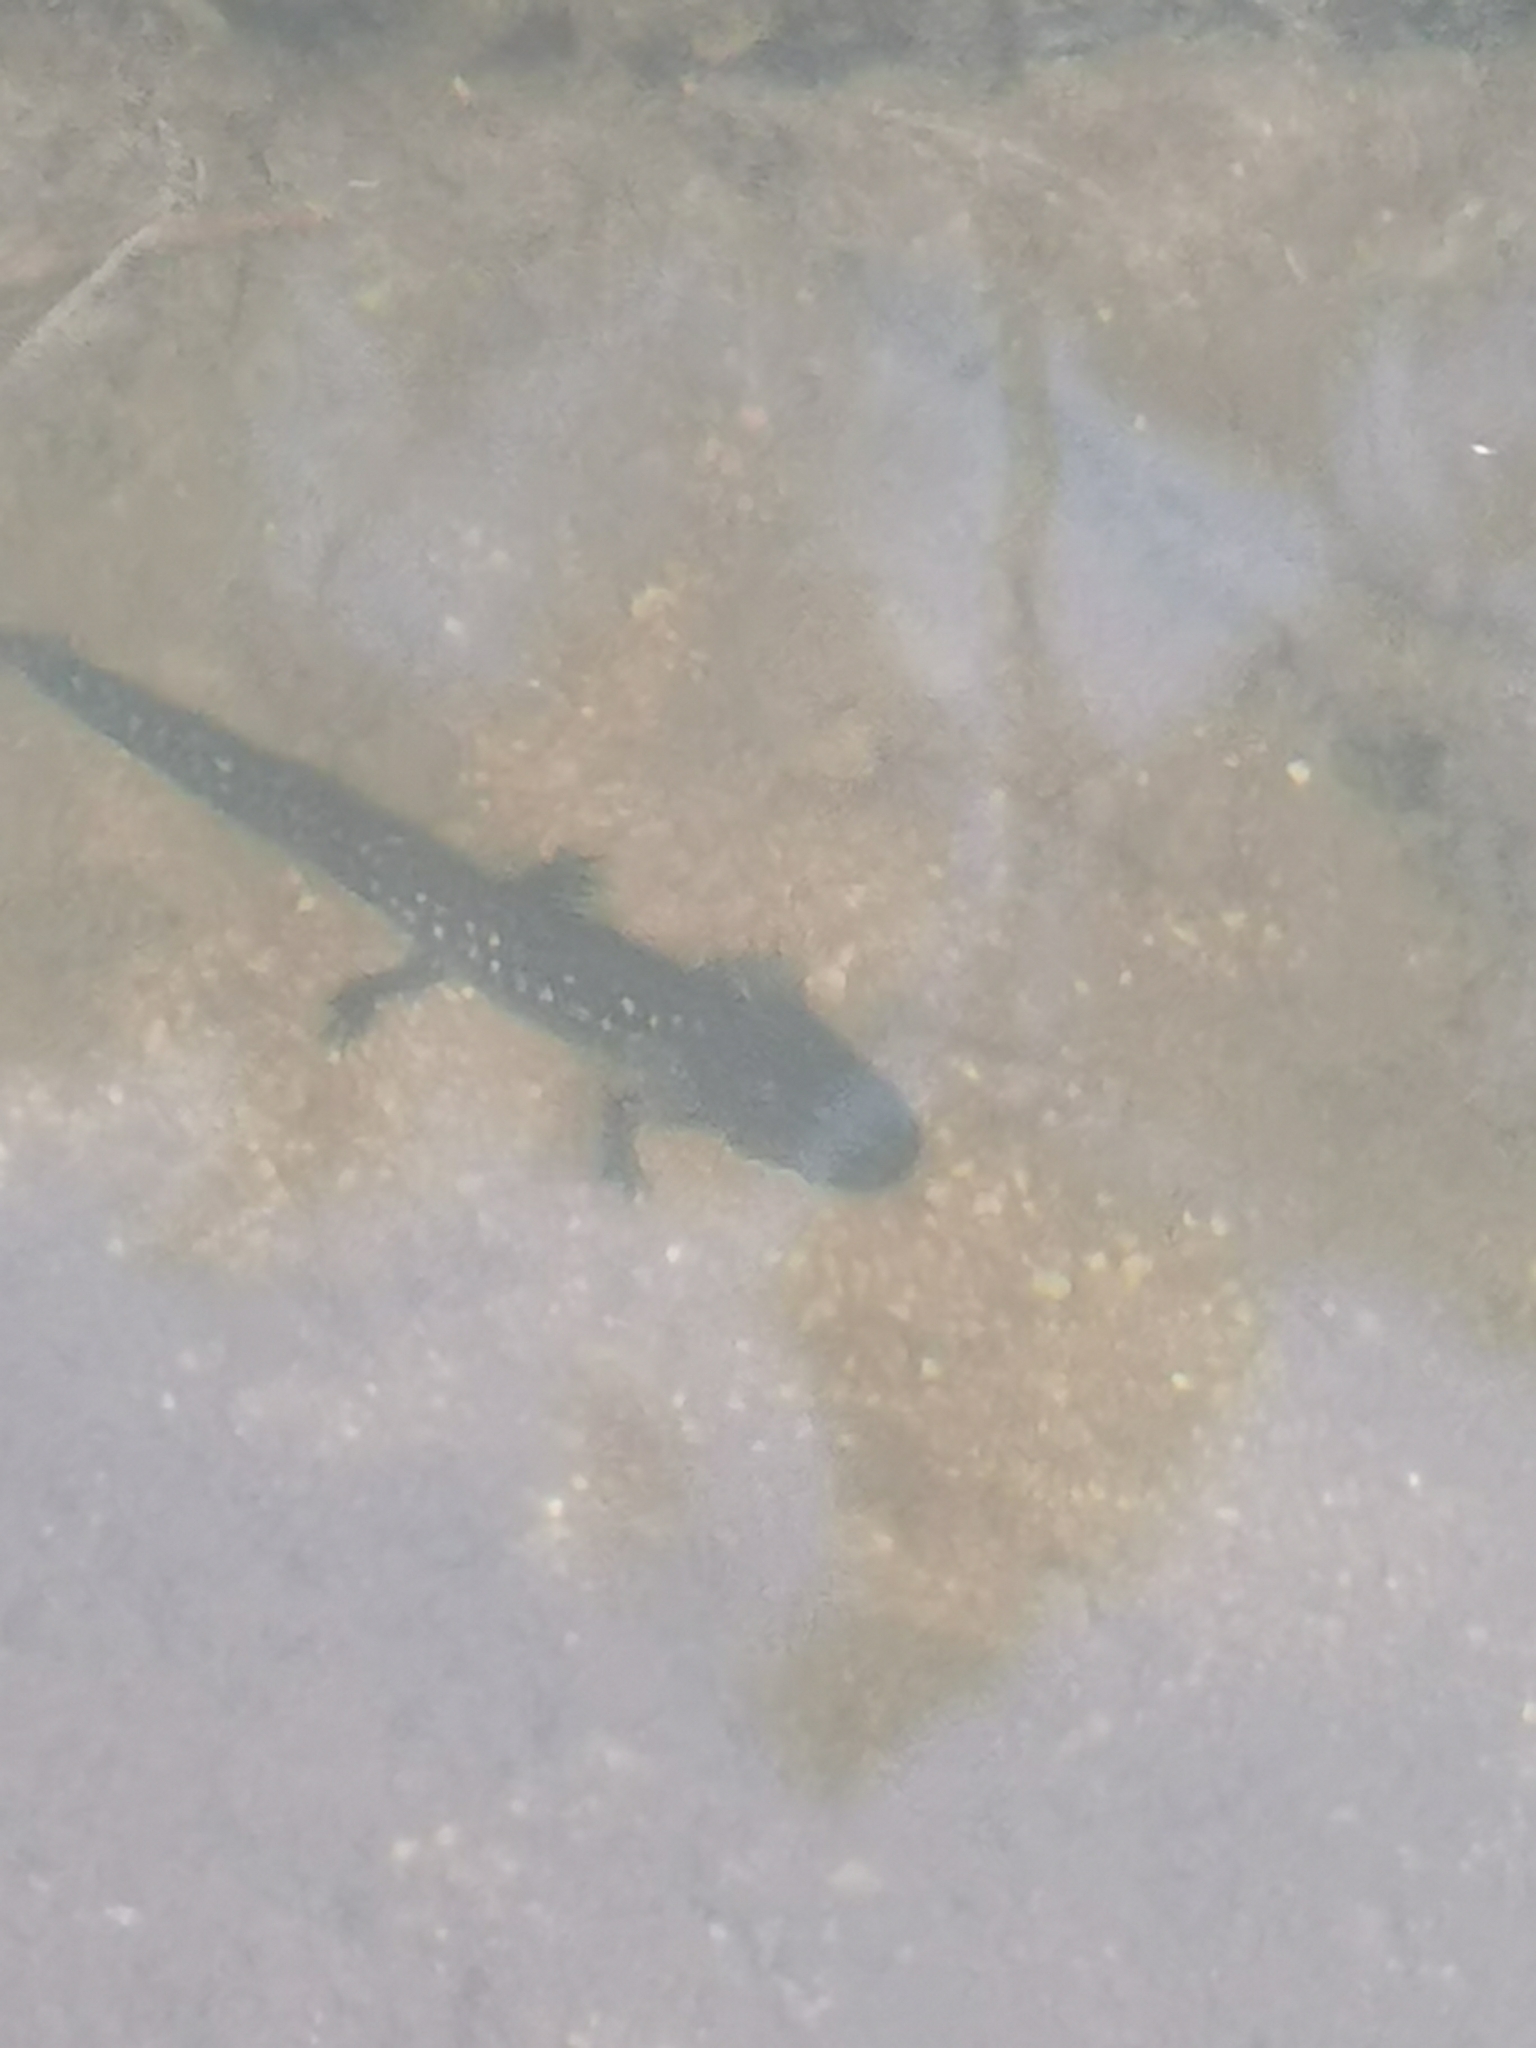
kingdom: Animalia
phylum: Chordata
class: Amphibia
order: Caudata
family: Ambystomatidae
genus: Ambystoma
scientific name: Ambystoma rosaceum
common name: Tarahumara salamander
